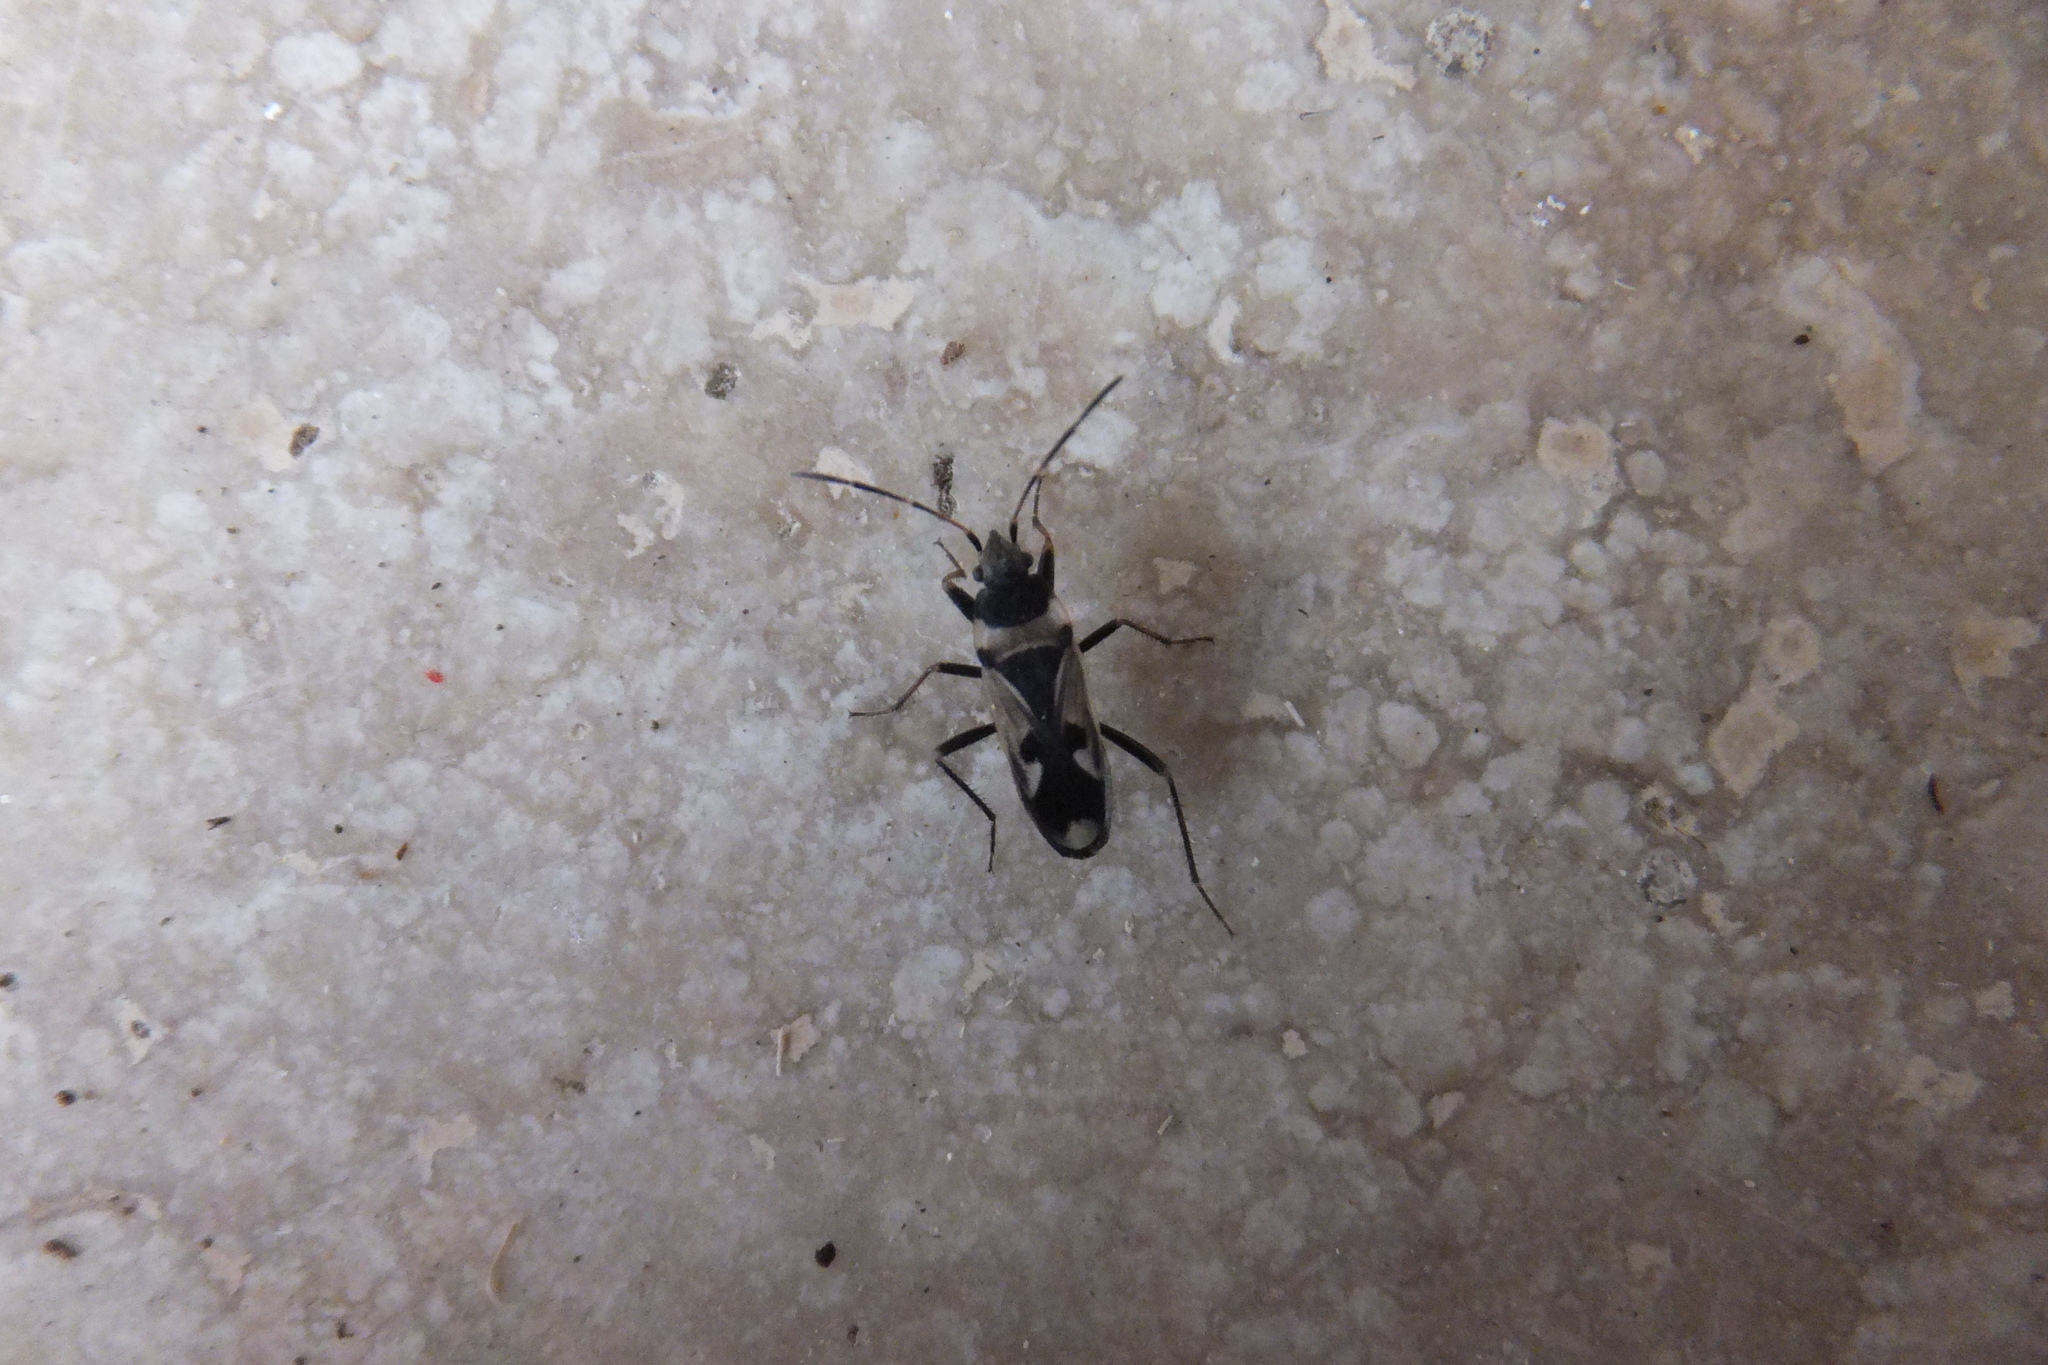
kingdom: Animalia
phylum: Arthropoda
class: Insecta
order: Hemiptera
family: Rhyparochromidae
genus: Raglius
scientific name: Raglius confusus
